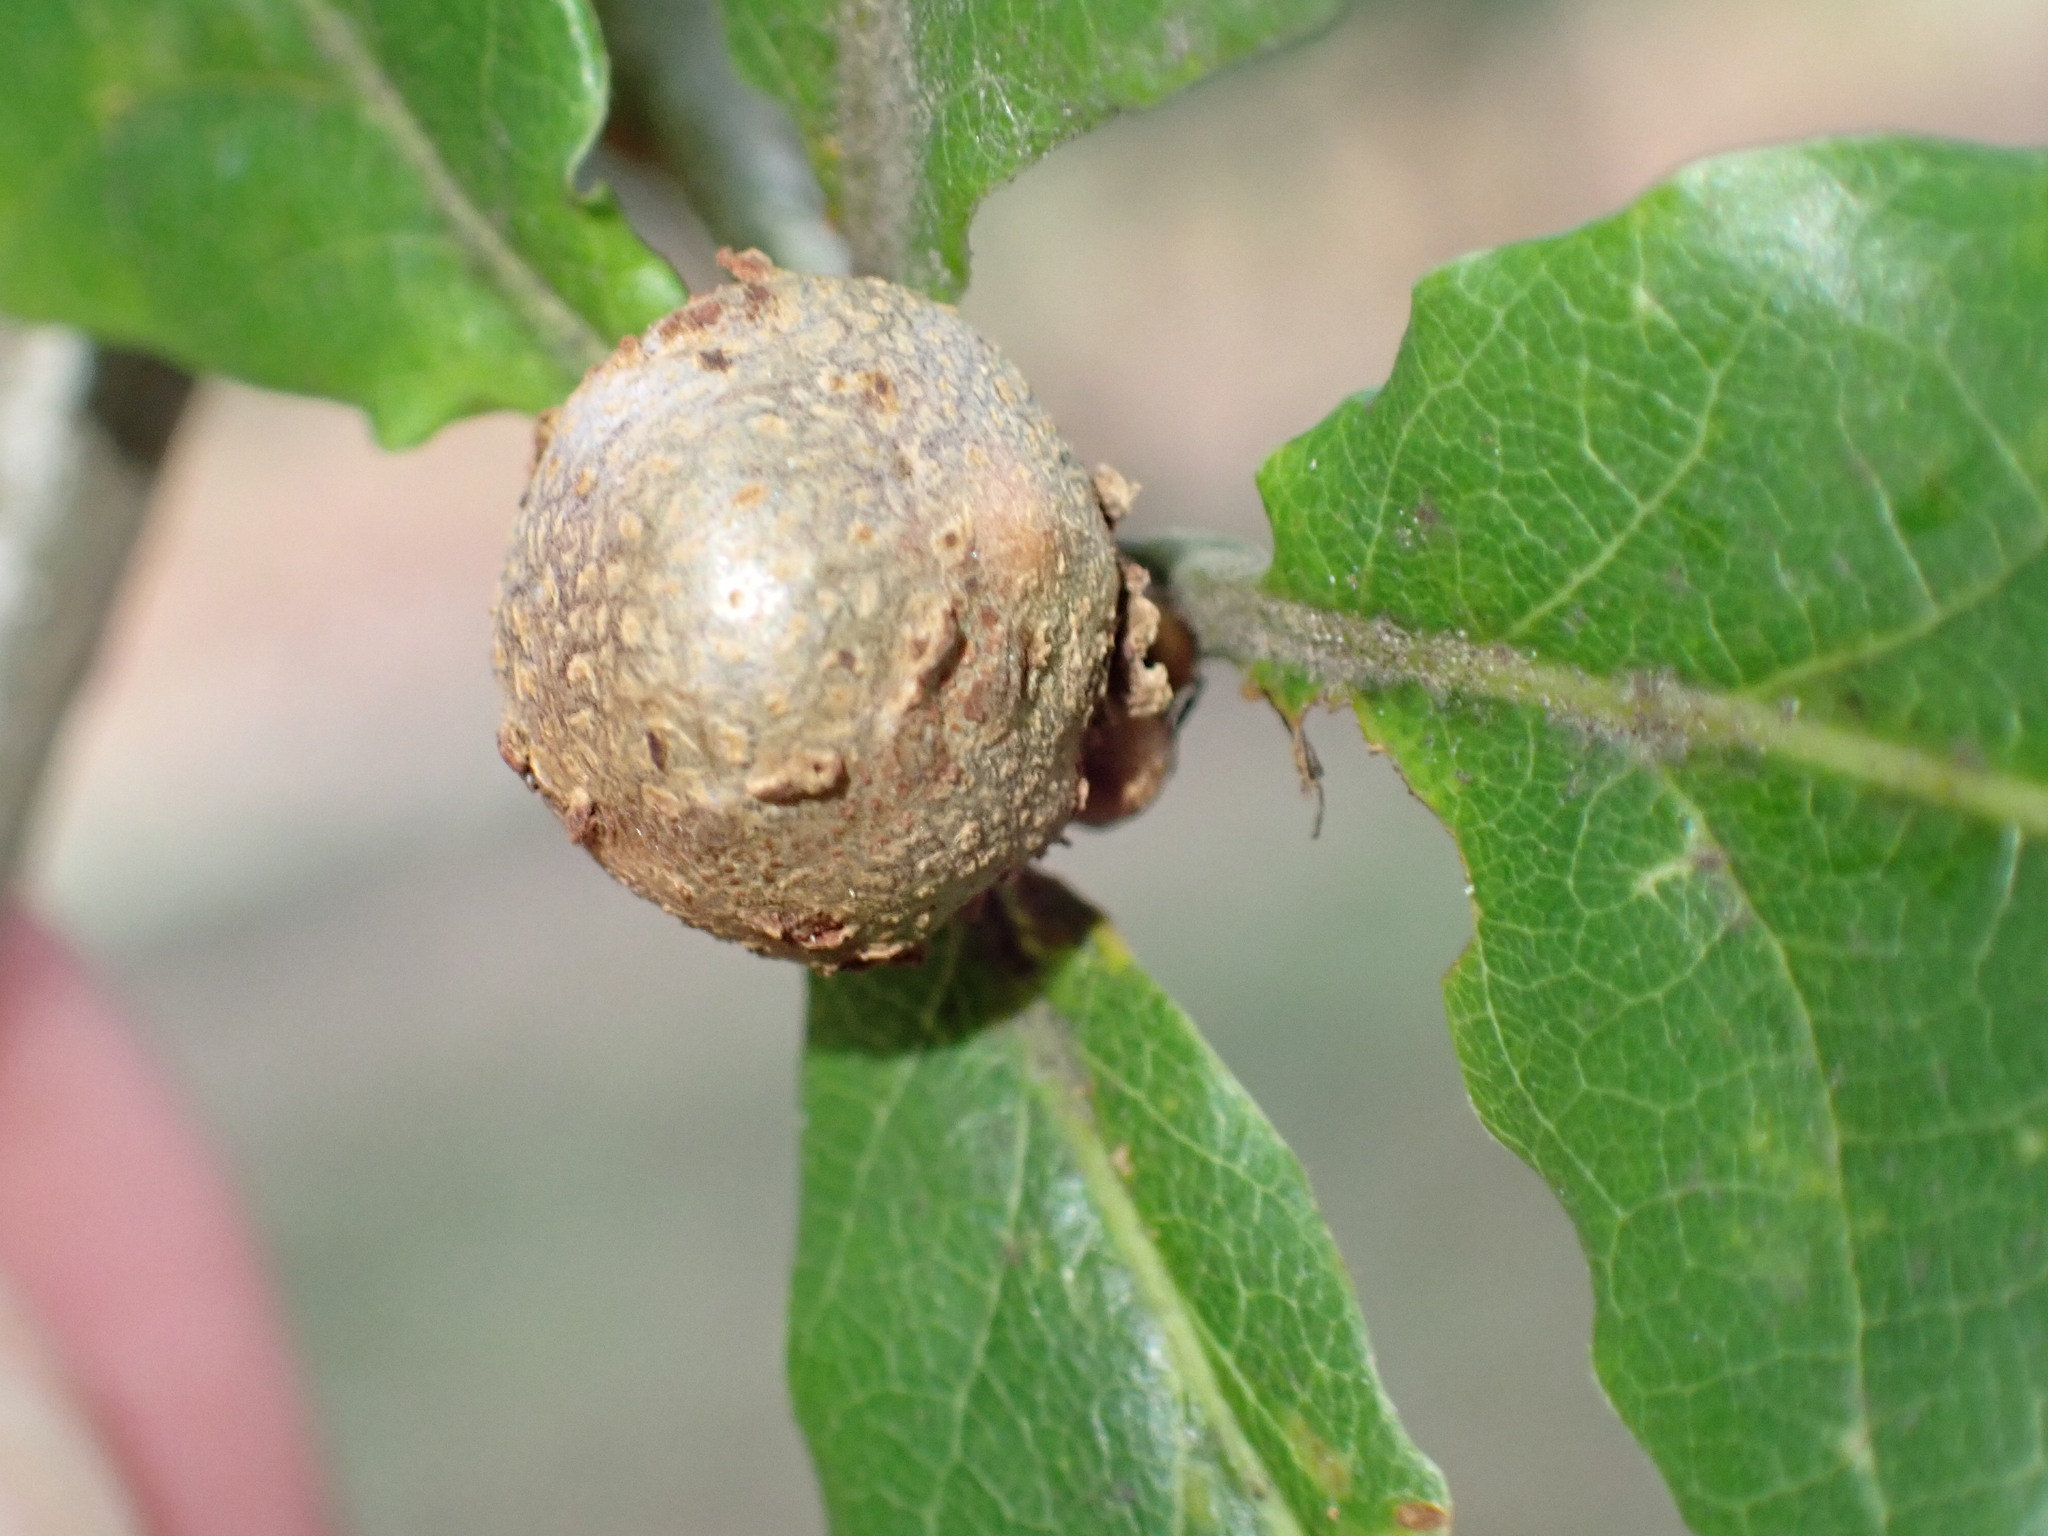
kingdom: Animalia
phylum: Arthropoda
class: Insecta
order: Hymenoptera
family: Cynipidae
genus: Andricus
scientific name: Andricus lignicolus
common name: Cola-nut gall
